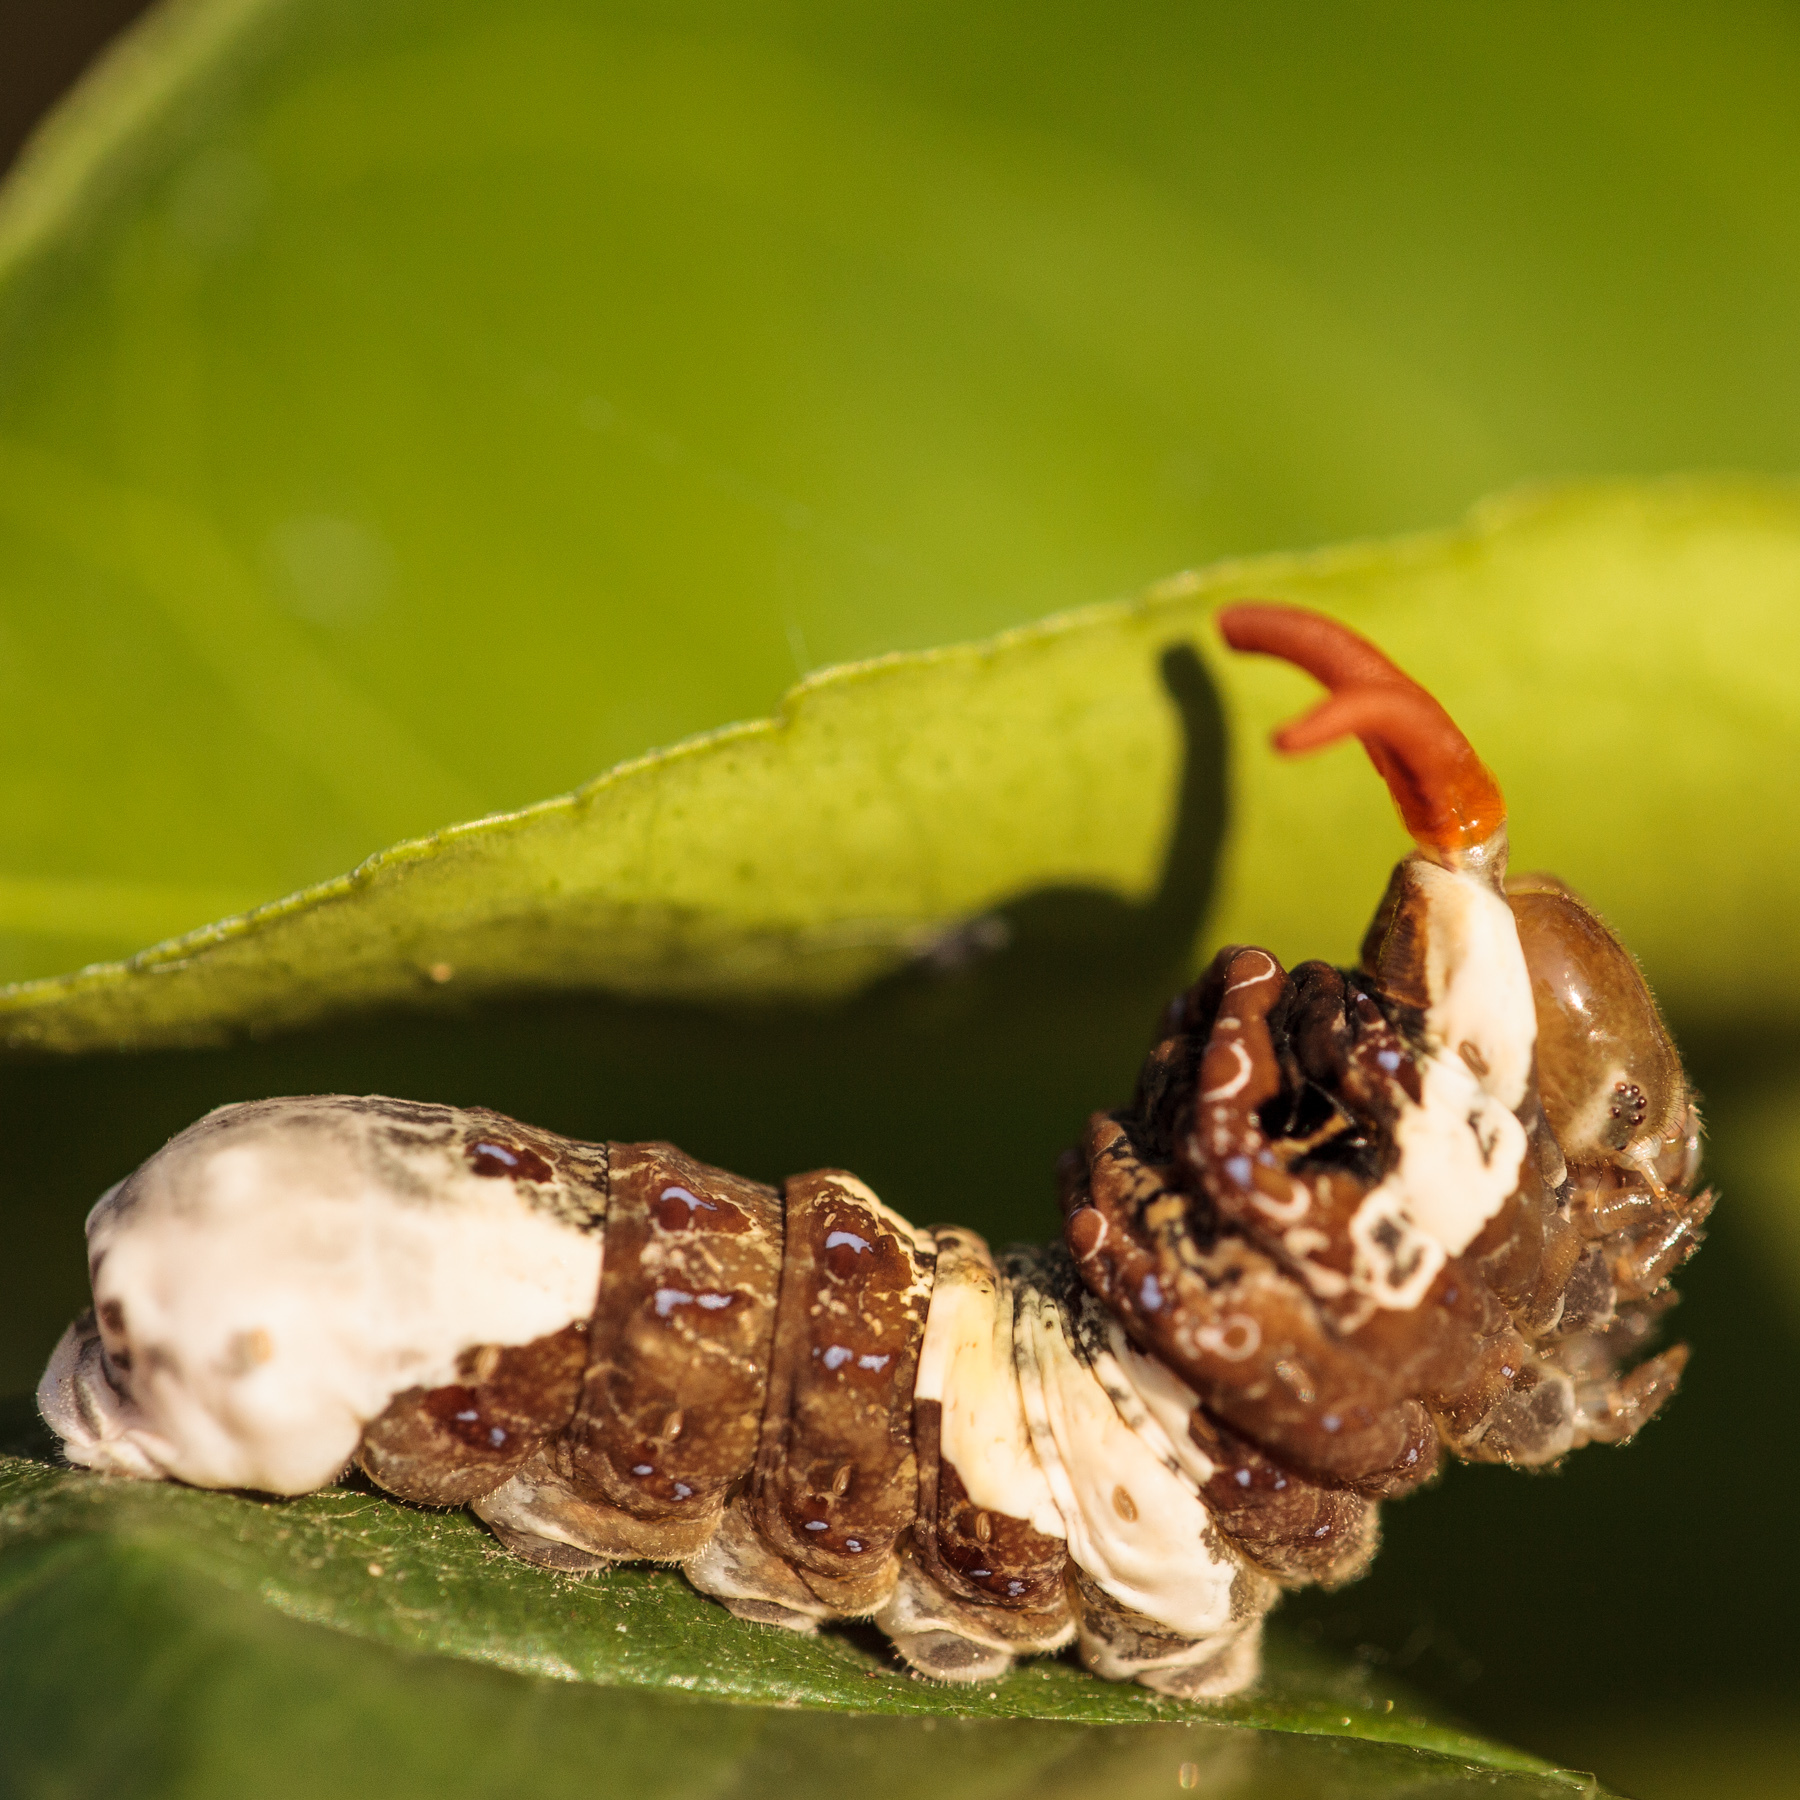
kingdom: Animalia
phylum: Arthropoda
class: Insecta
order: Lepidoptera
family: Papilionidae
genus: Papilio
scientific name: Papilio rumiko
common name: Western giant swallowtail
